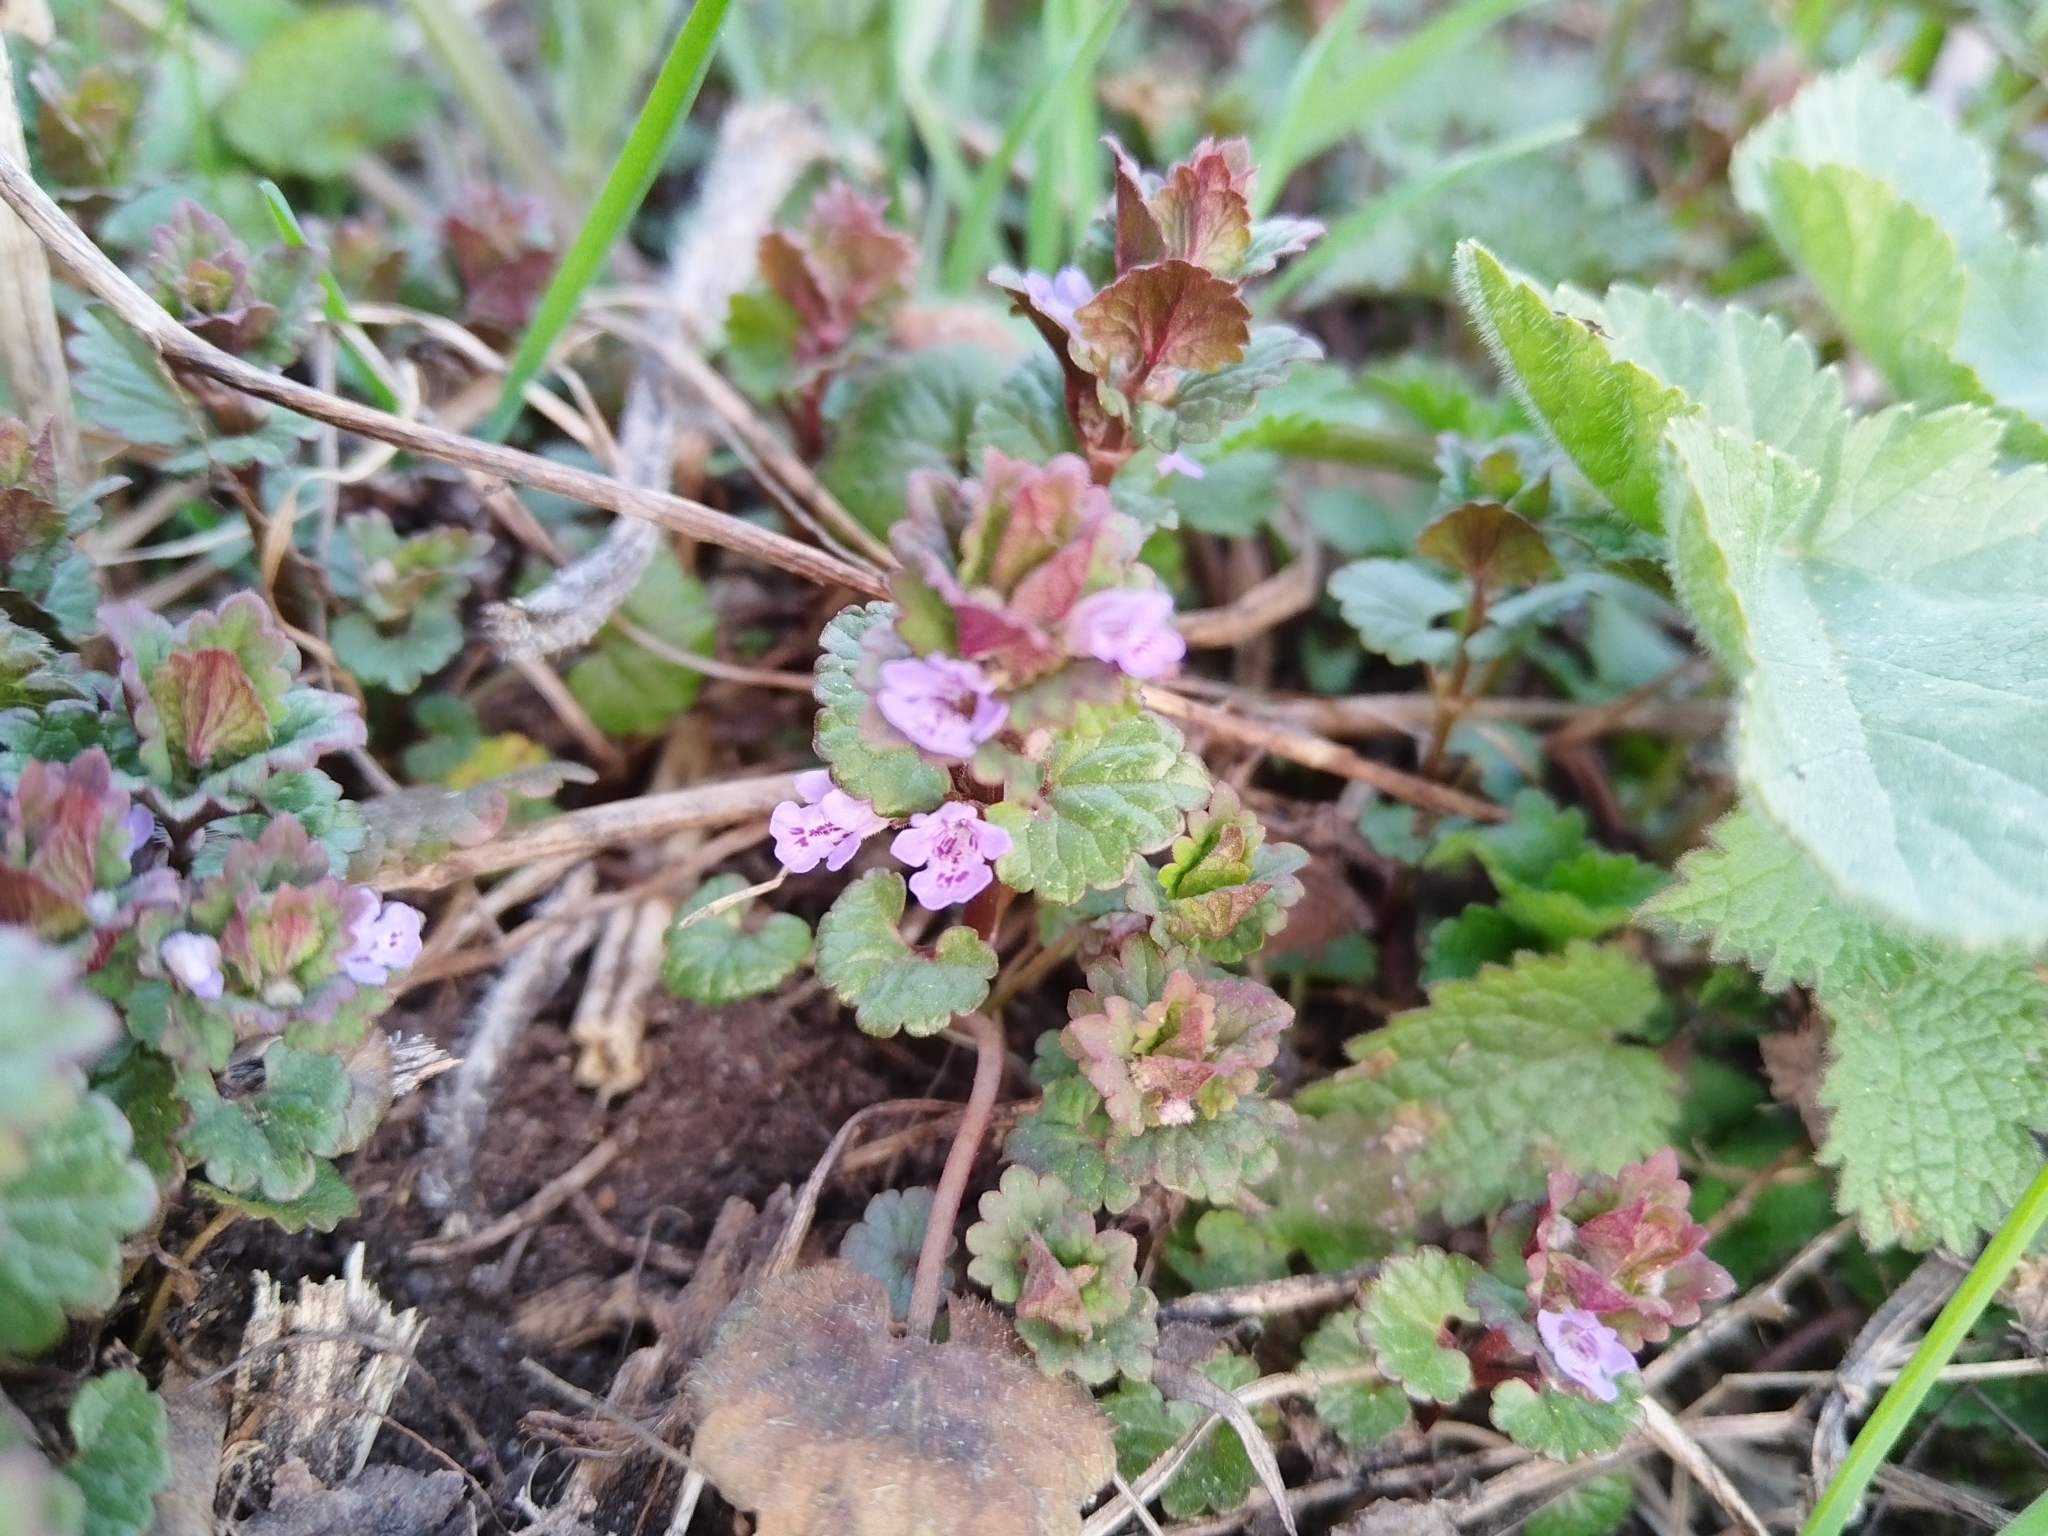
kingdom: Plantae
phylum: Tracheophyta
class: Magnoliopsida
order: Lamiales
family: Lamiaceae
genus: Glechoma
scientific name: Glechoma hederacea
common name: Ground ivy
